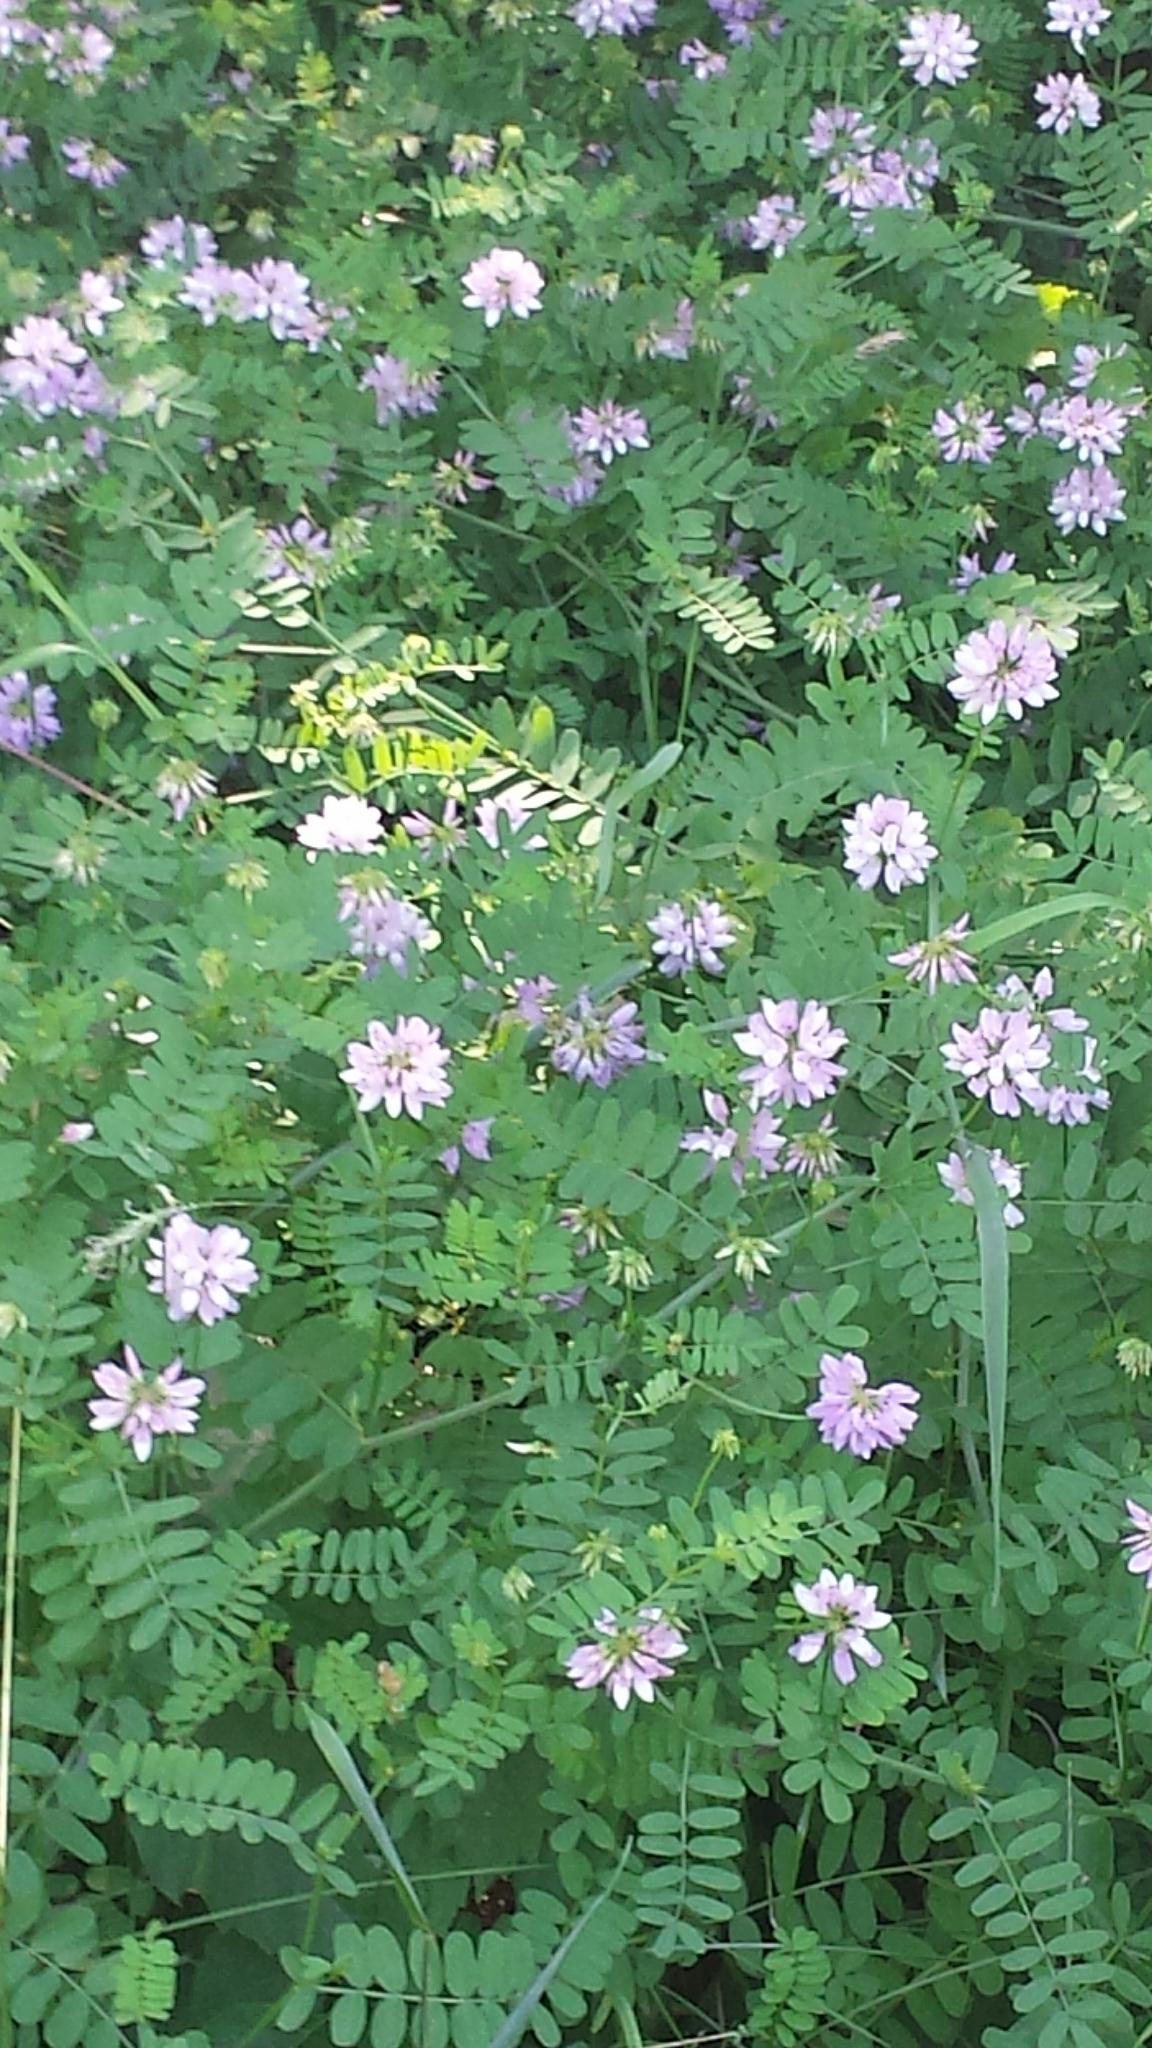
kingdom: Plantae
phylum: Tracheophyta
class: Magnoliopsida
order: Fabales
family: Fabaceae
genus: Coronilla
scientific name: Coronilla varia
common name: Crownvetch
